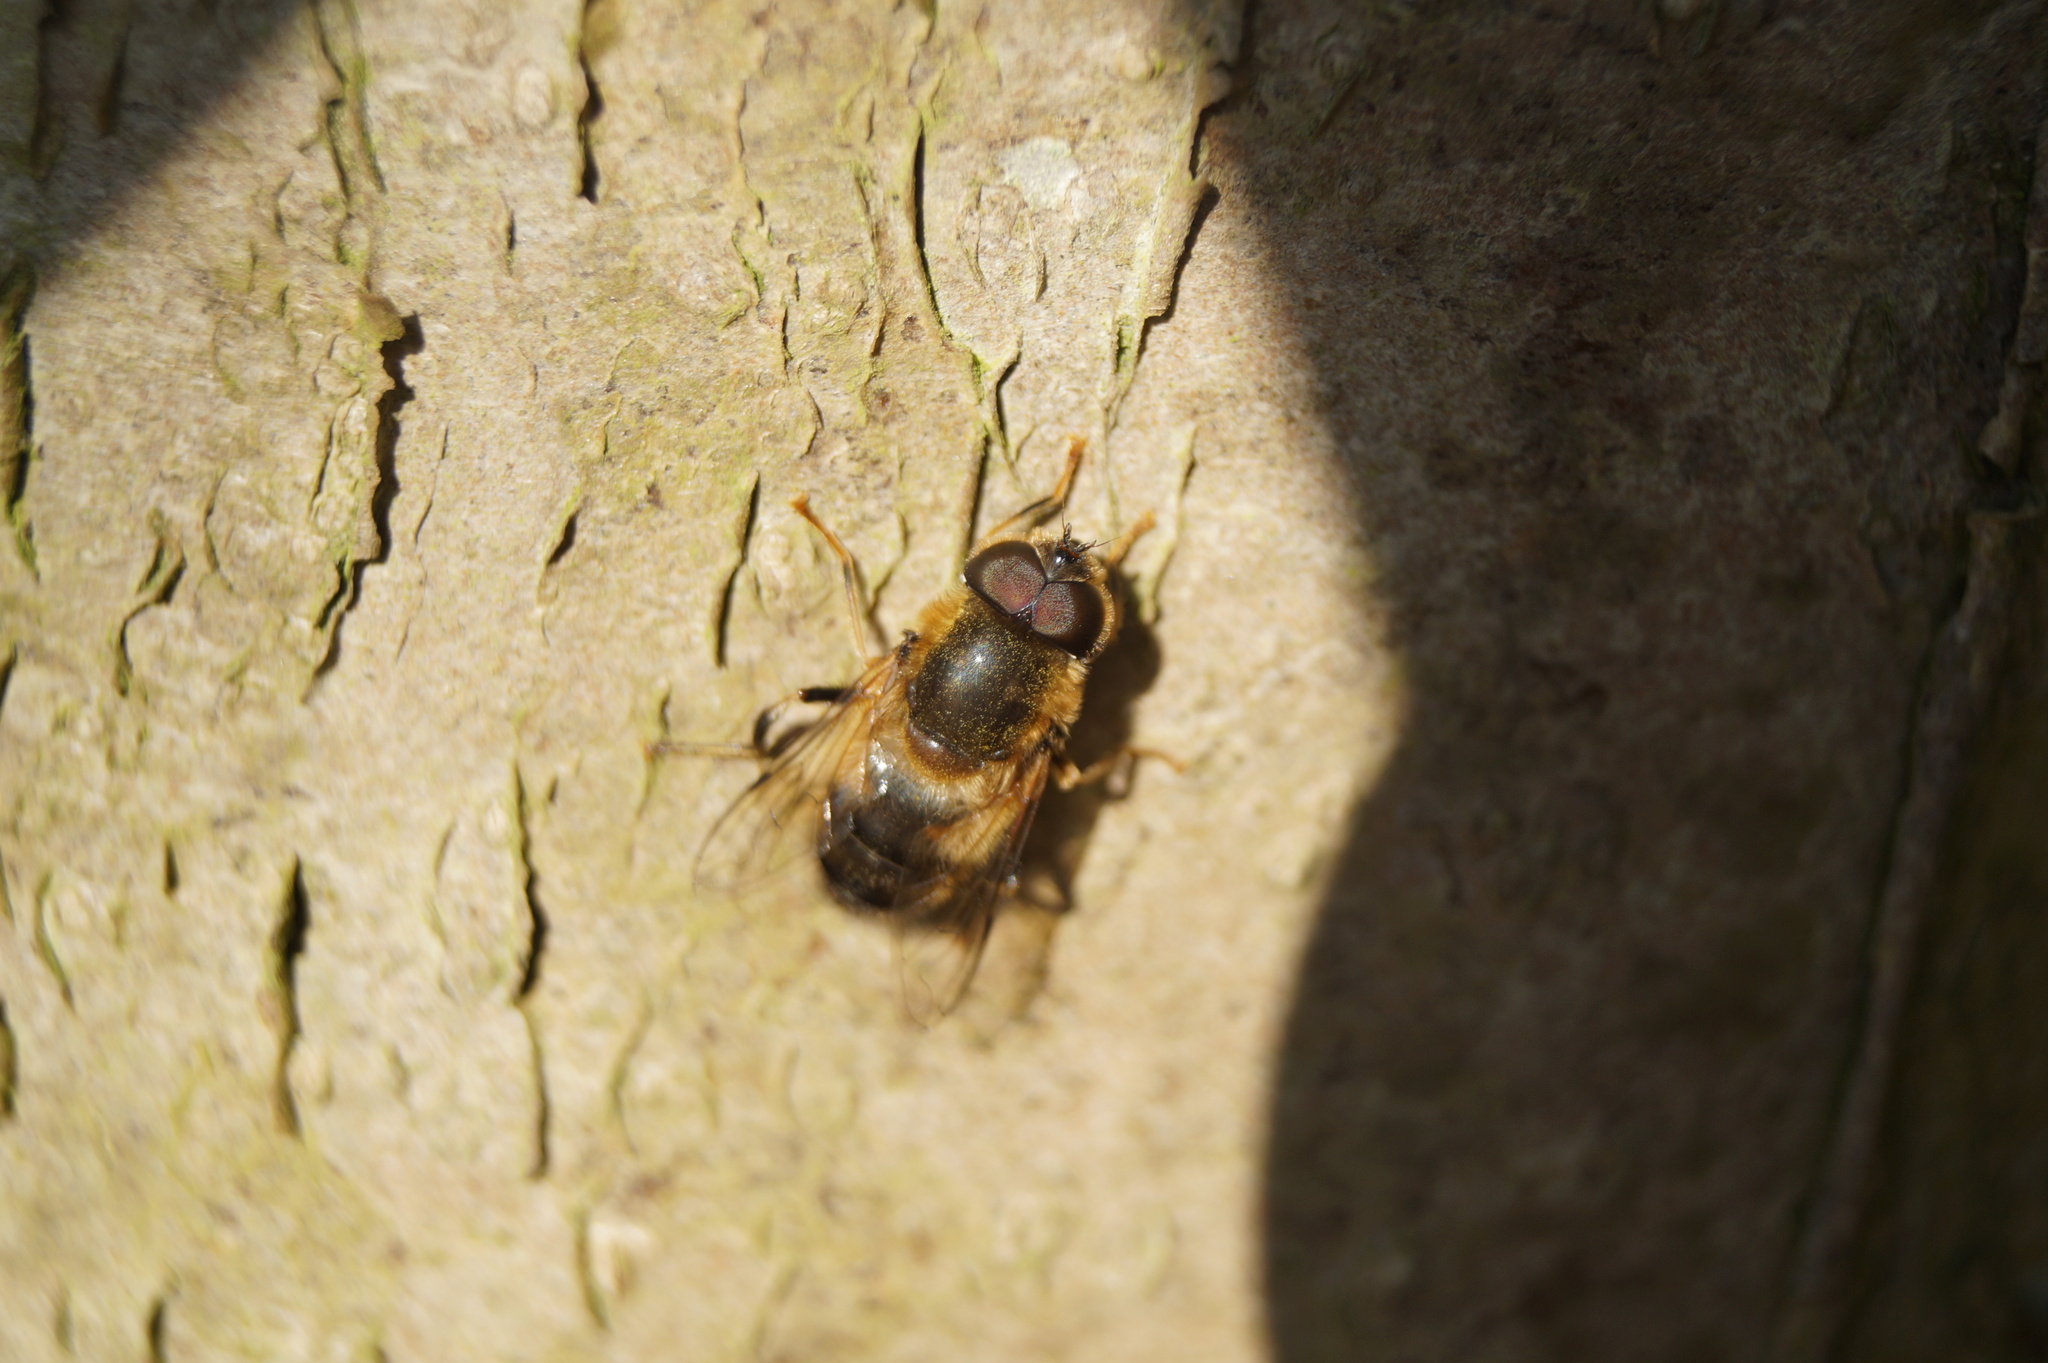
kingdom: Animalia
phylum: Arthropoda
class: Insecta
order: Diptera
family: Syrphidae
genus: Eristalis
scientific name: Eristalis pertinax
